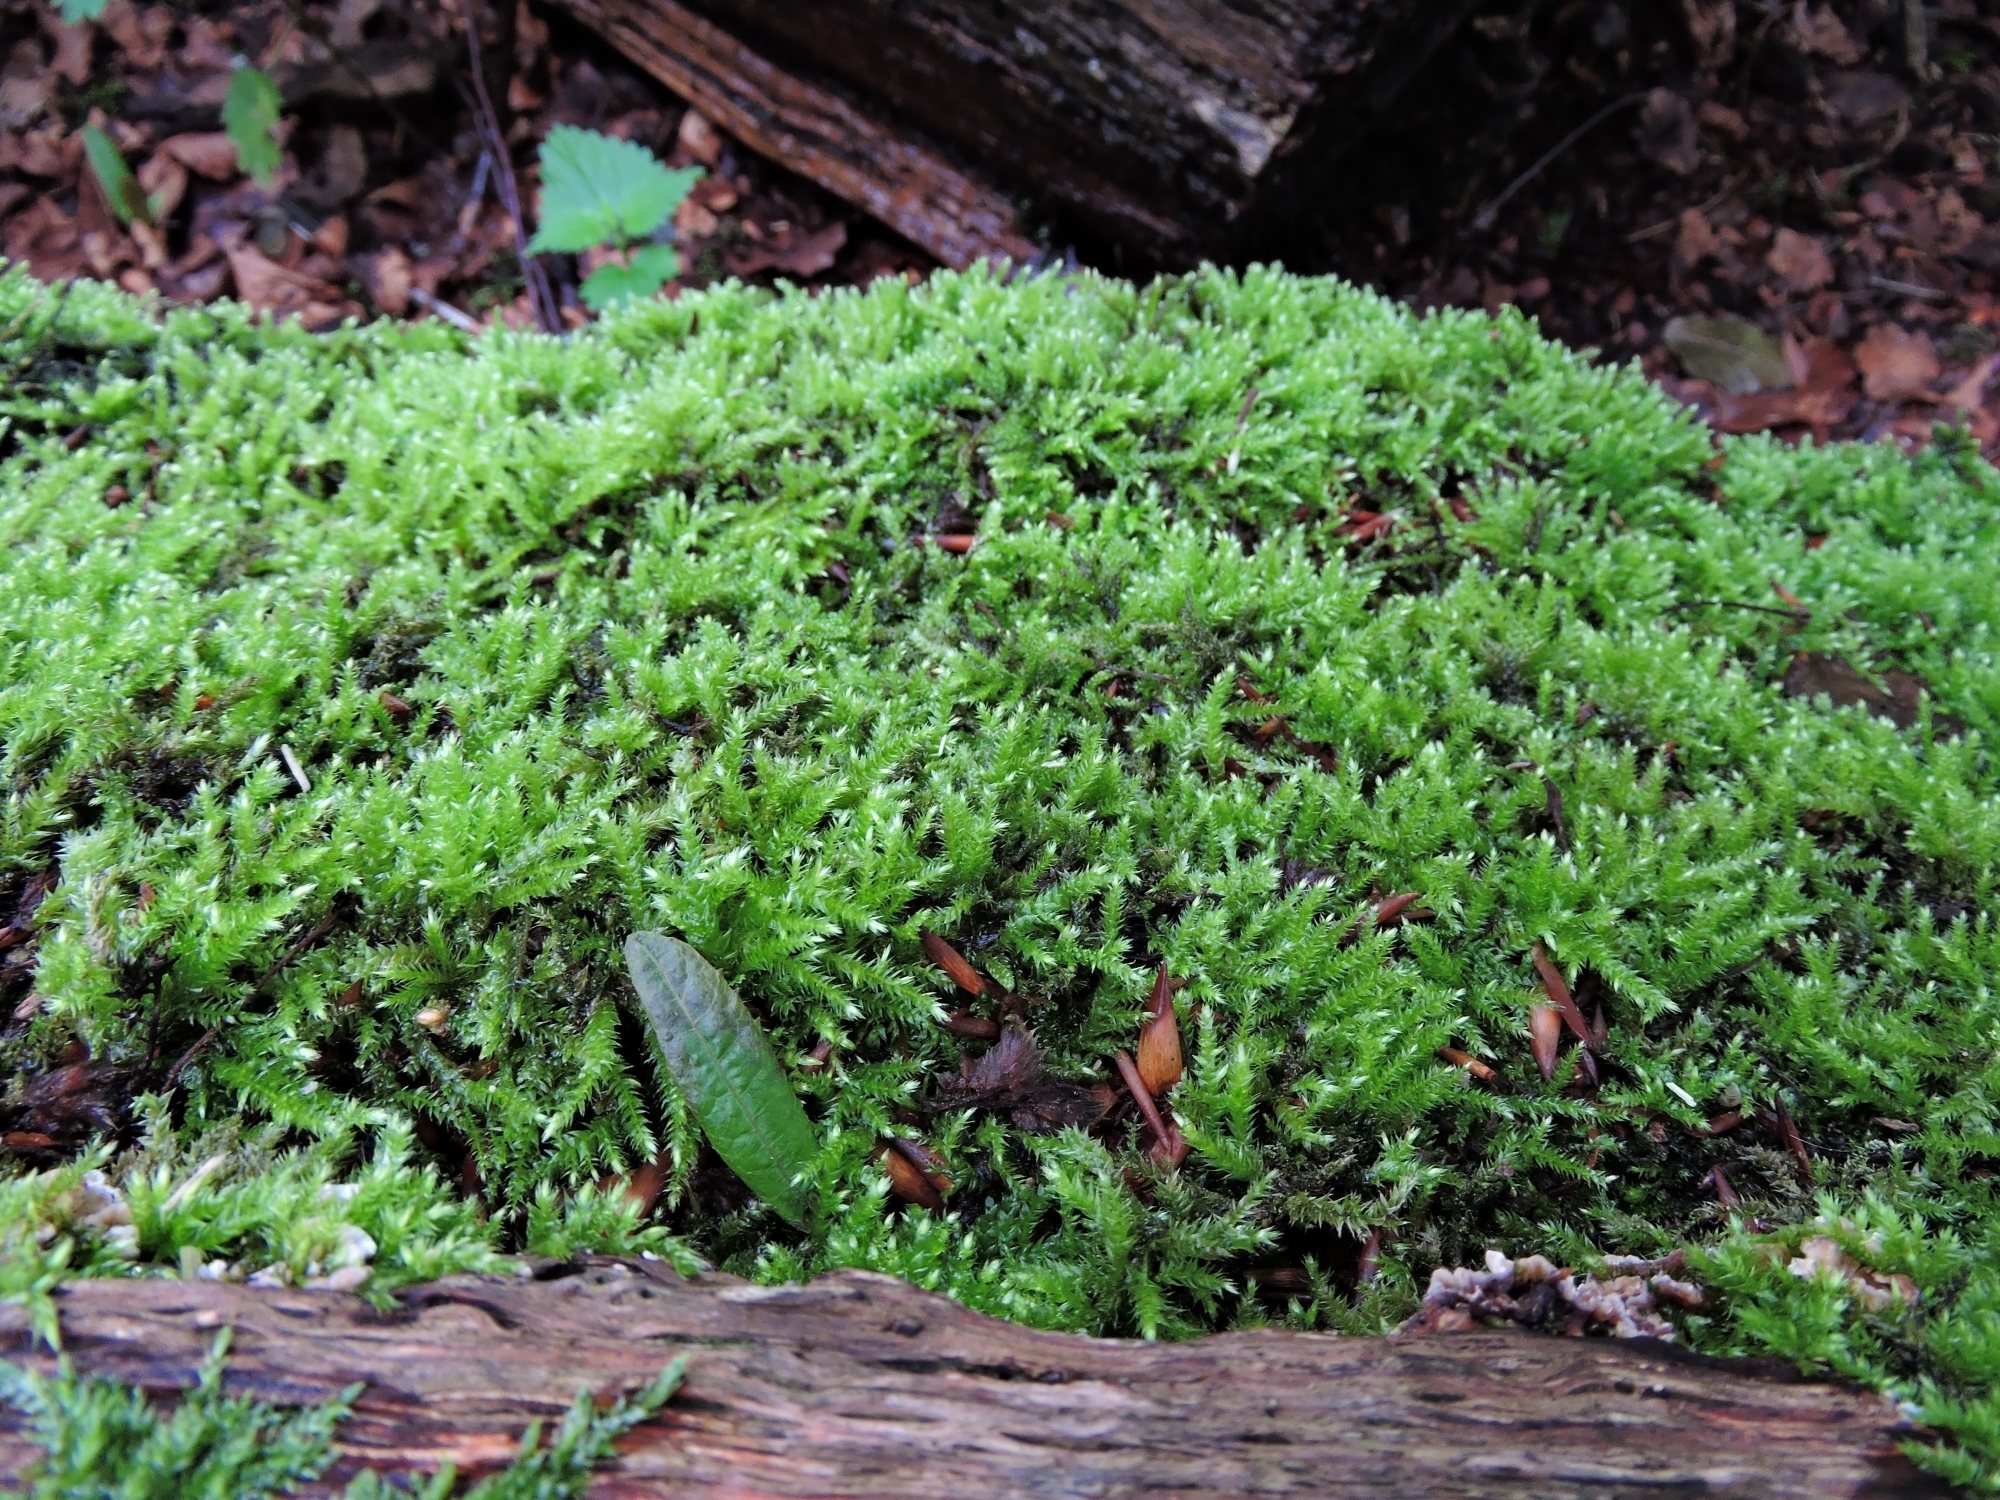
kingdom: Plantae
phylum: Bryophyta
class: Bryopsida
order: Hypnales
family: Brachytheciaceae
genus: Rhynchostegium
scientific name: Rhynchostegium confertum
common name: Clustered feather-moss
